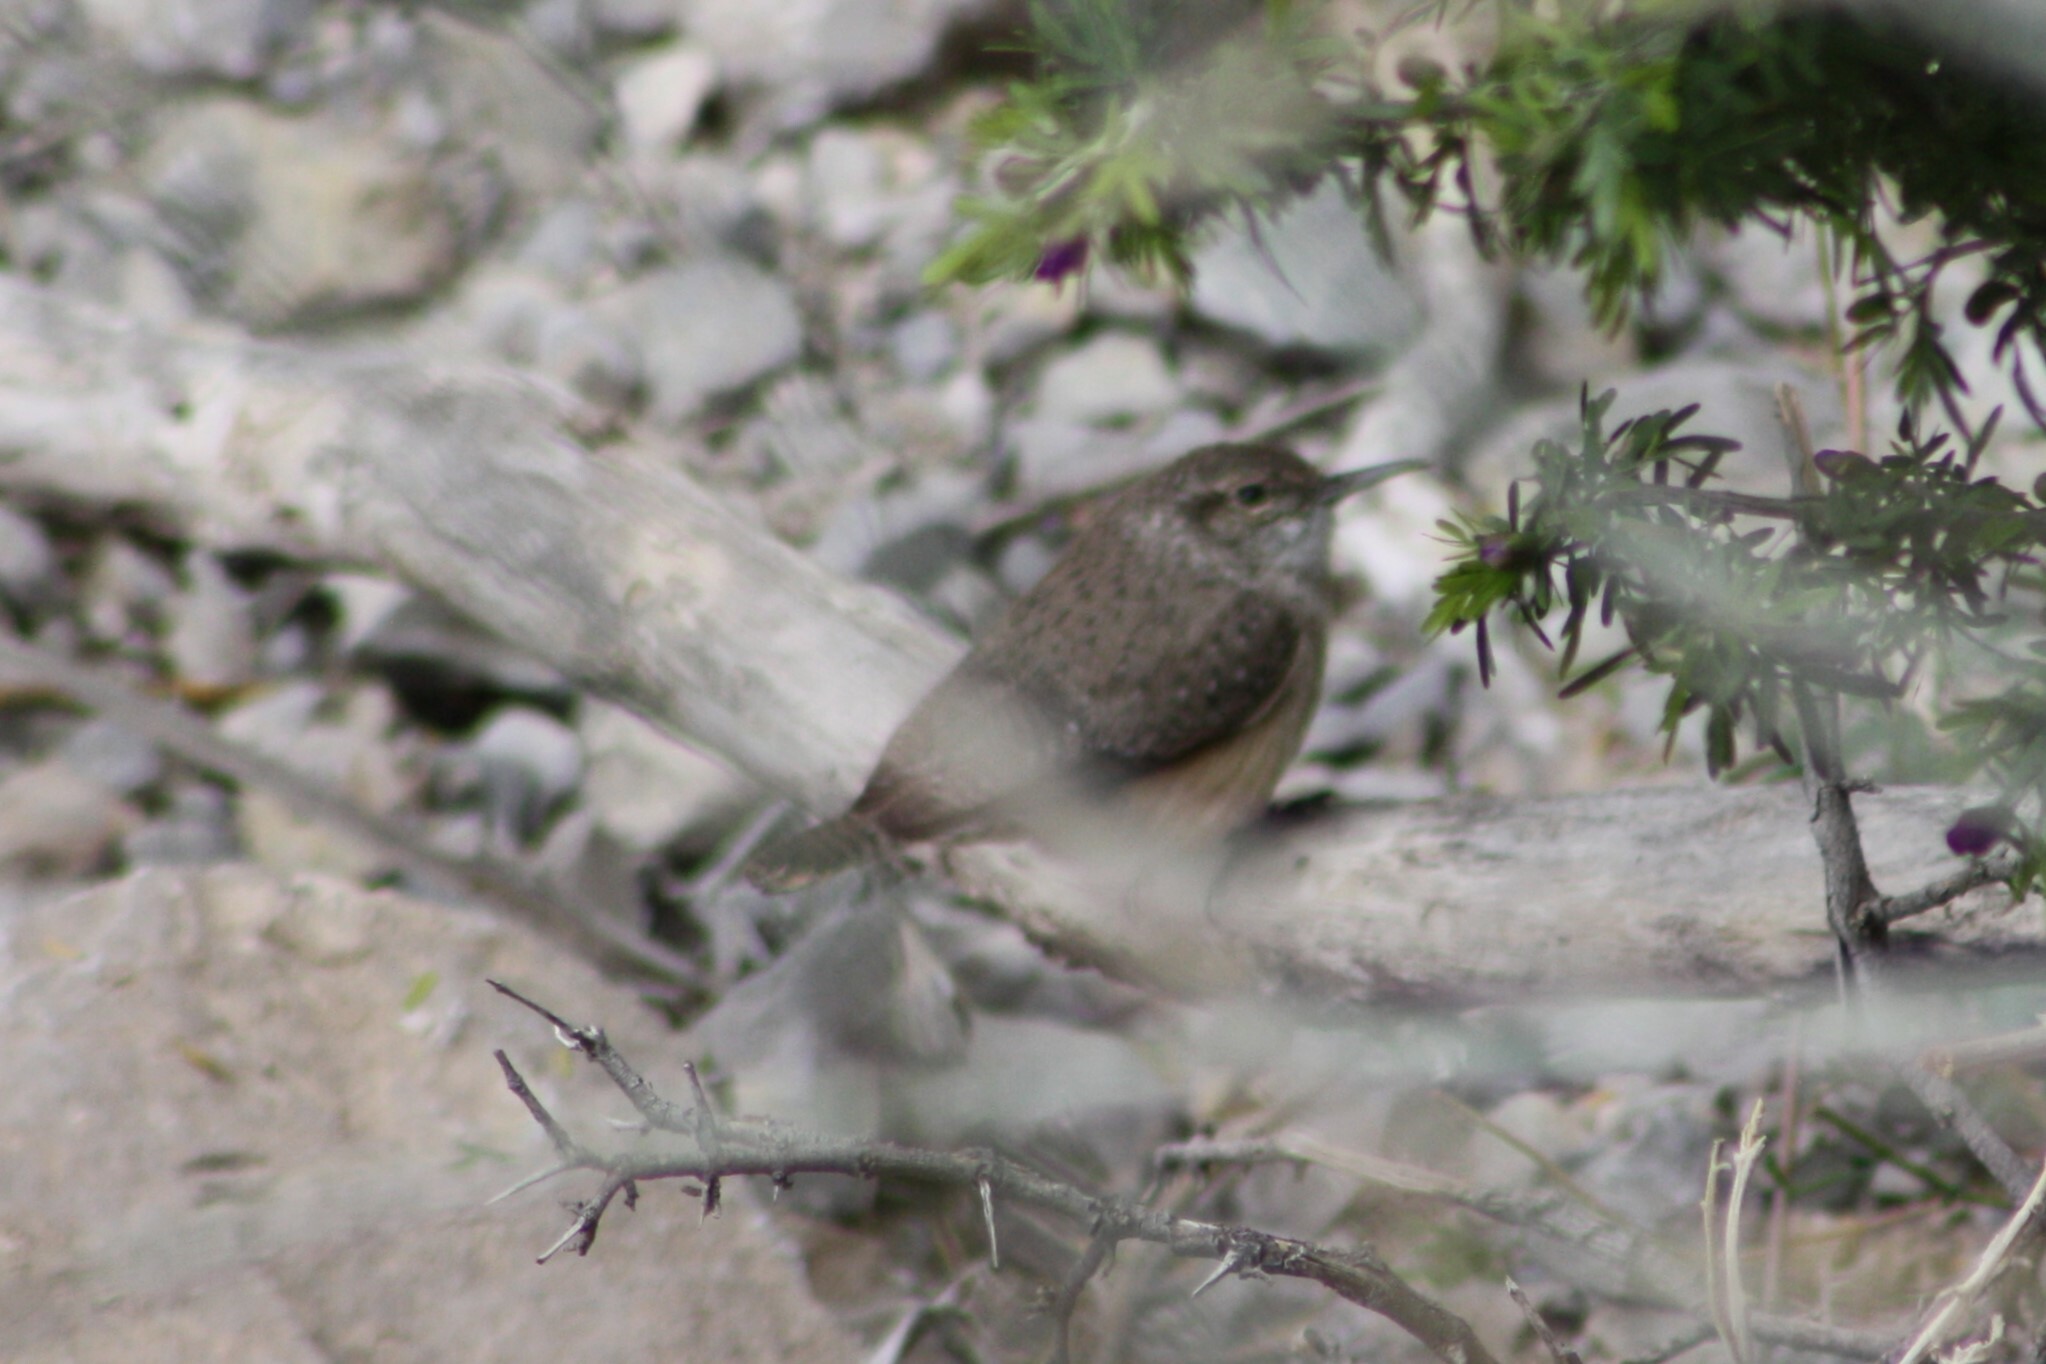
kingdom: Animalia
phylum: Chordata
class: Aves
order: Passeriformes
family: Troglodytidae
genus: Salpinctes
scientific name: Salpinctes obsoletus
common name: Rock wren
